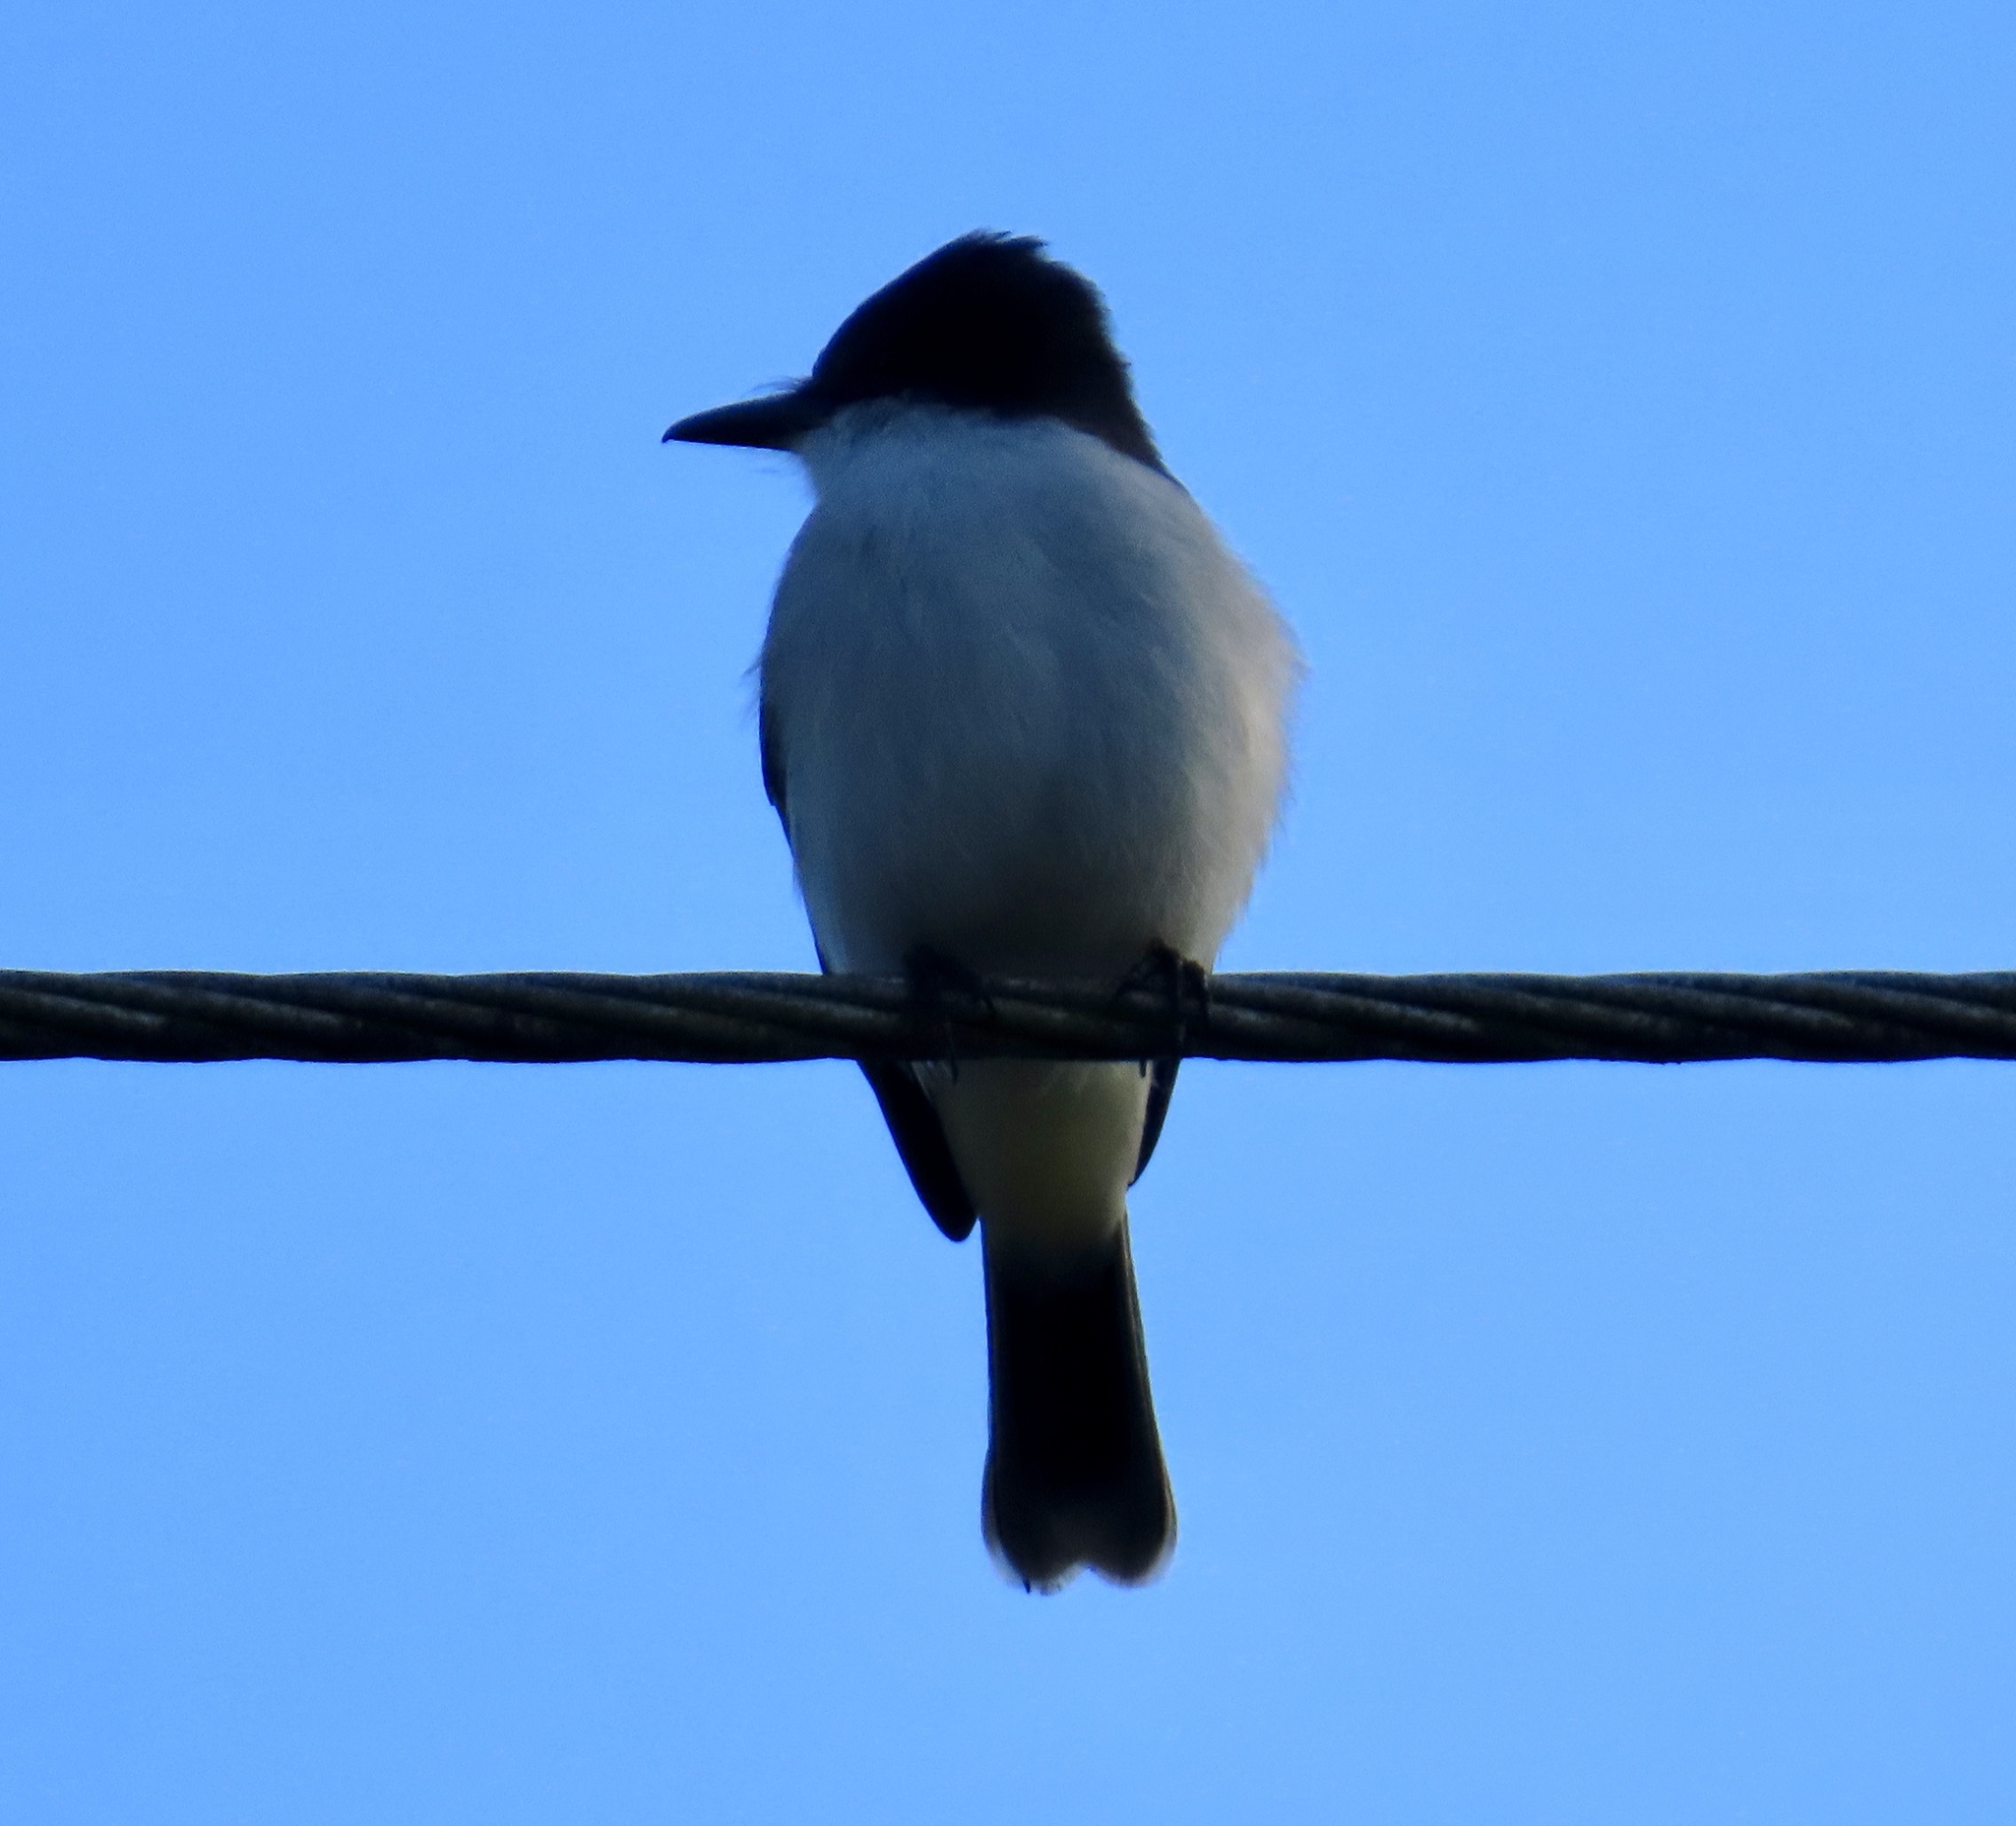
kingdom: Animalia
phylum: Chordata
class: Aves
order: Passeriformes
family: Tyrannidae
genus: Tyrannus
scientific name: Tyrannus caudifasciatus
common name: Loggerhead kingbird
